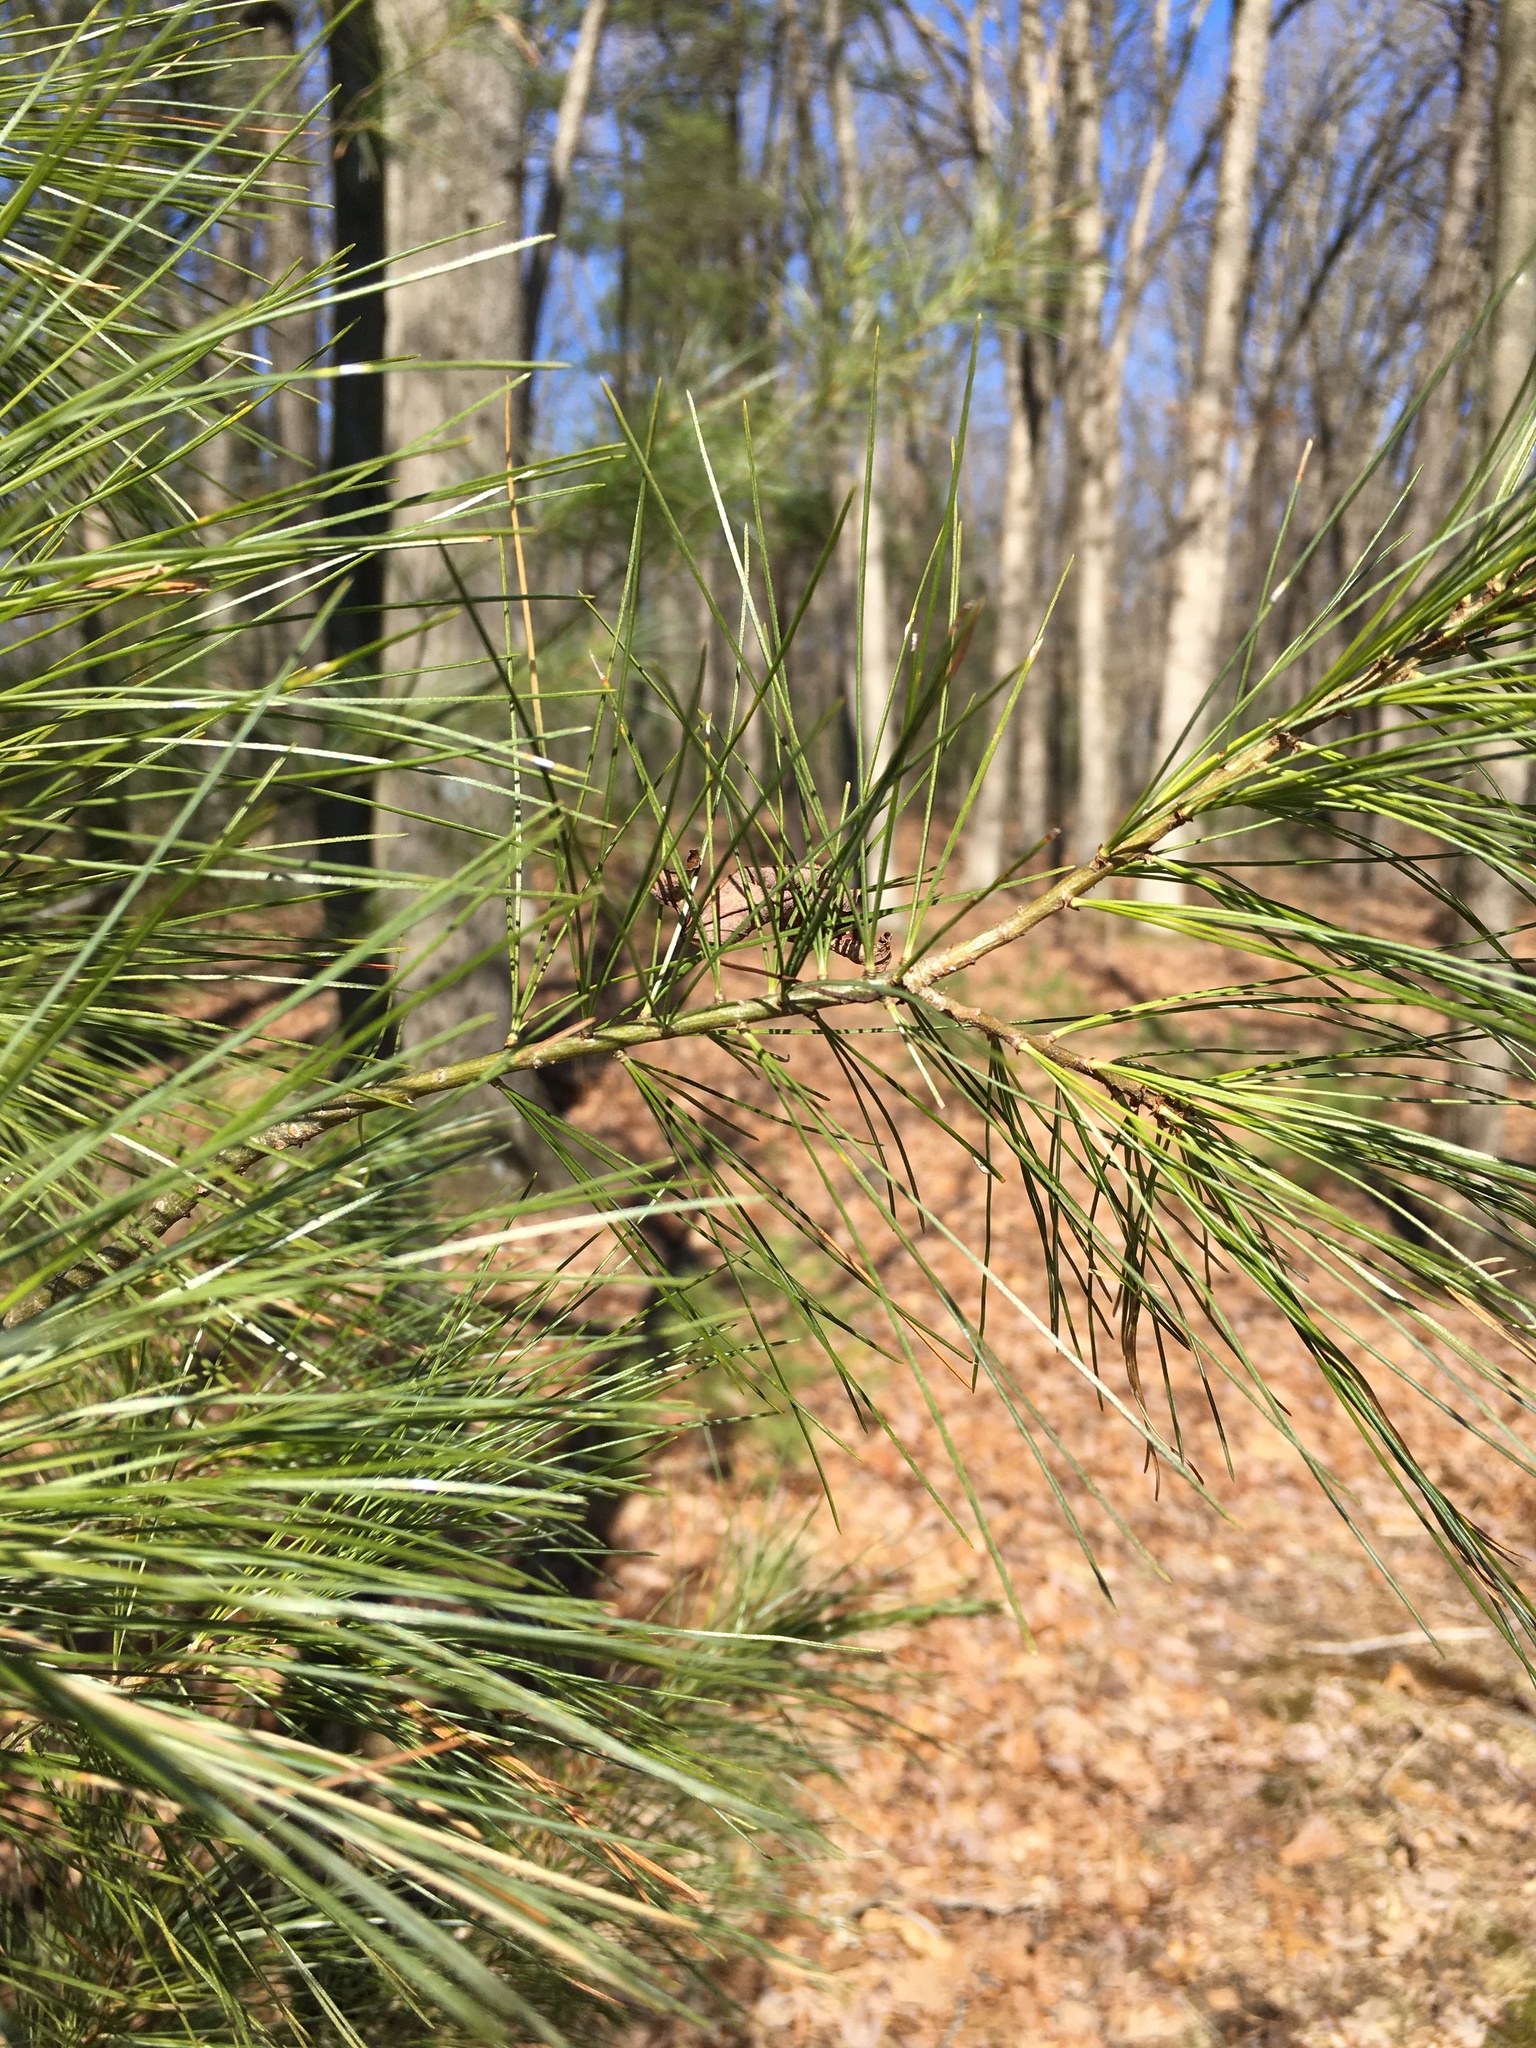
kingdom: Plantae
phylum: Tracheophyta
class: Pinopsida
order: Pinales
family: Pinaceae
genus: Pinus
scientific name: Pinus strobus
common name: Weymouth pine
